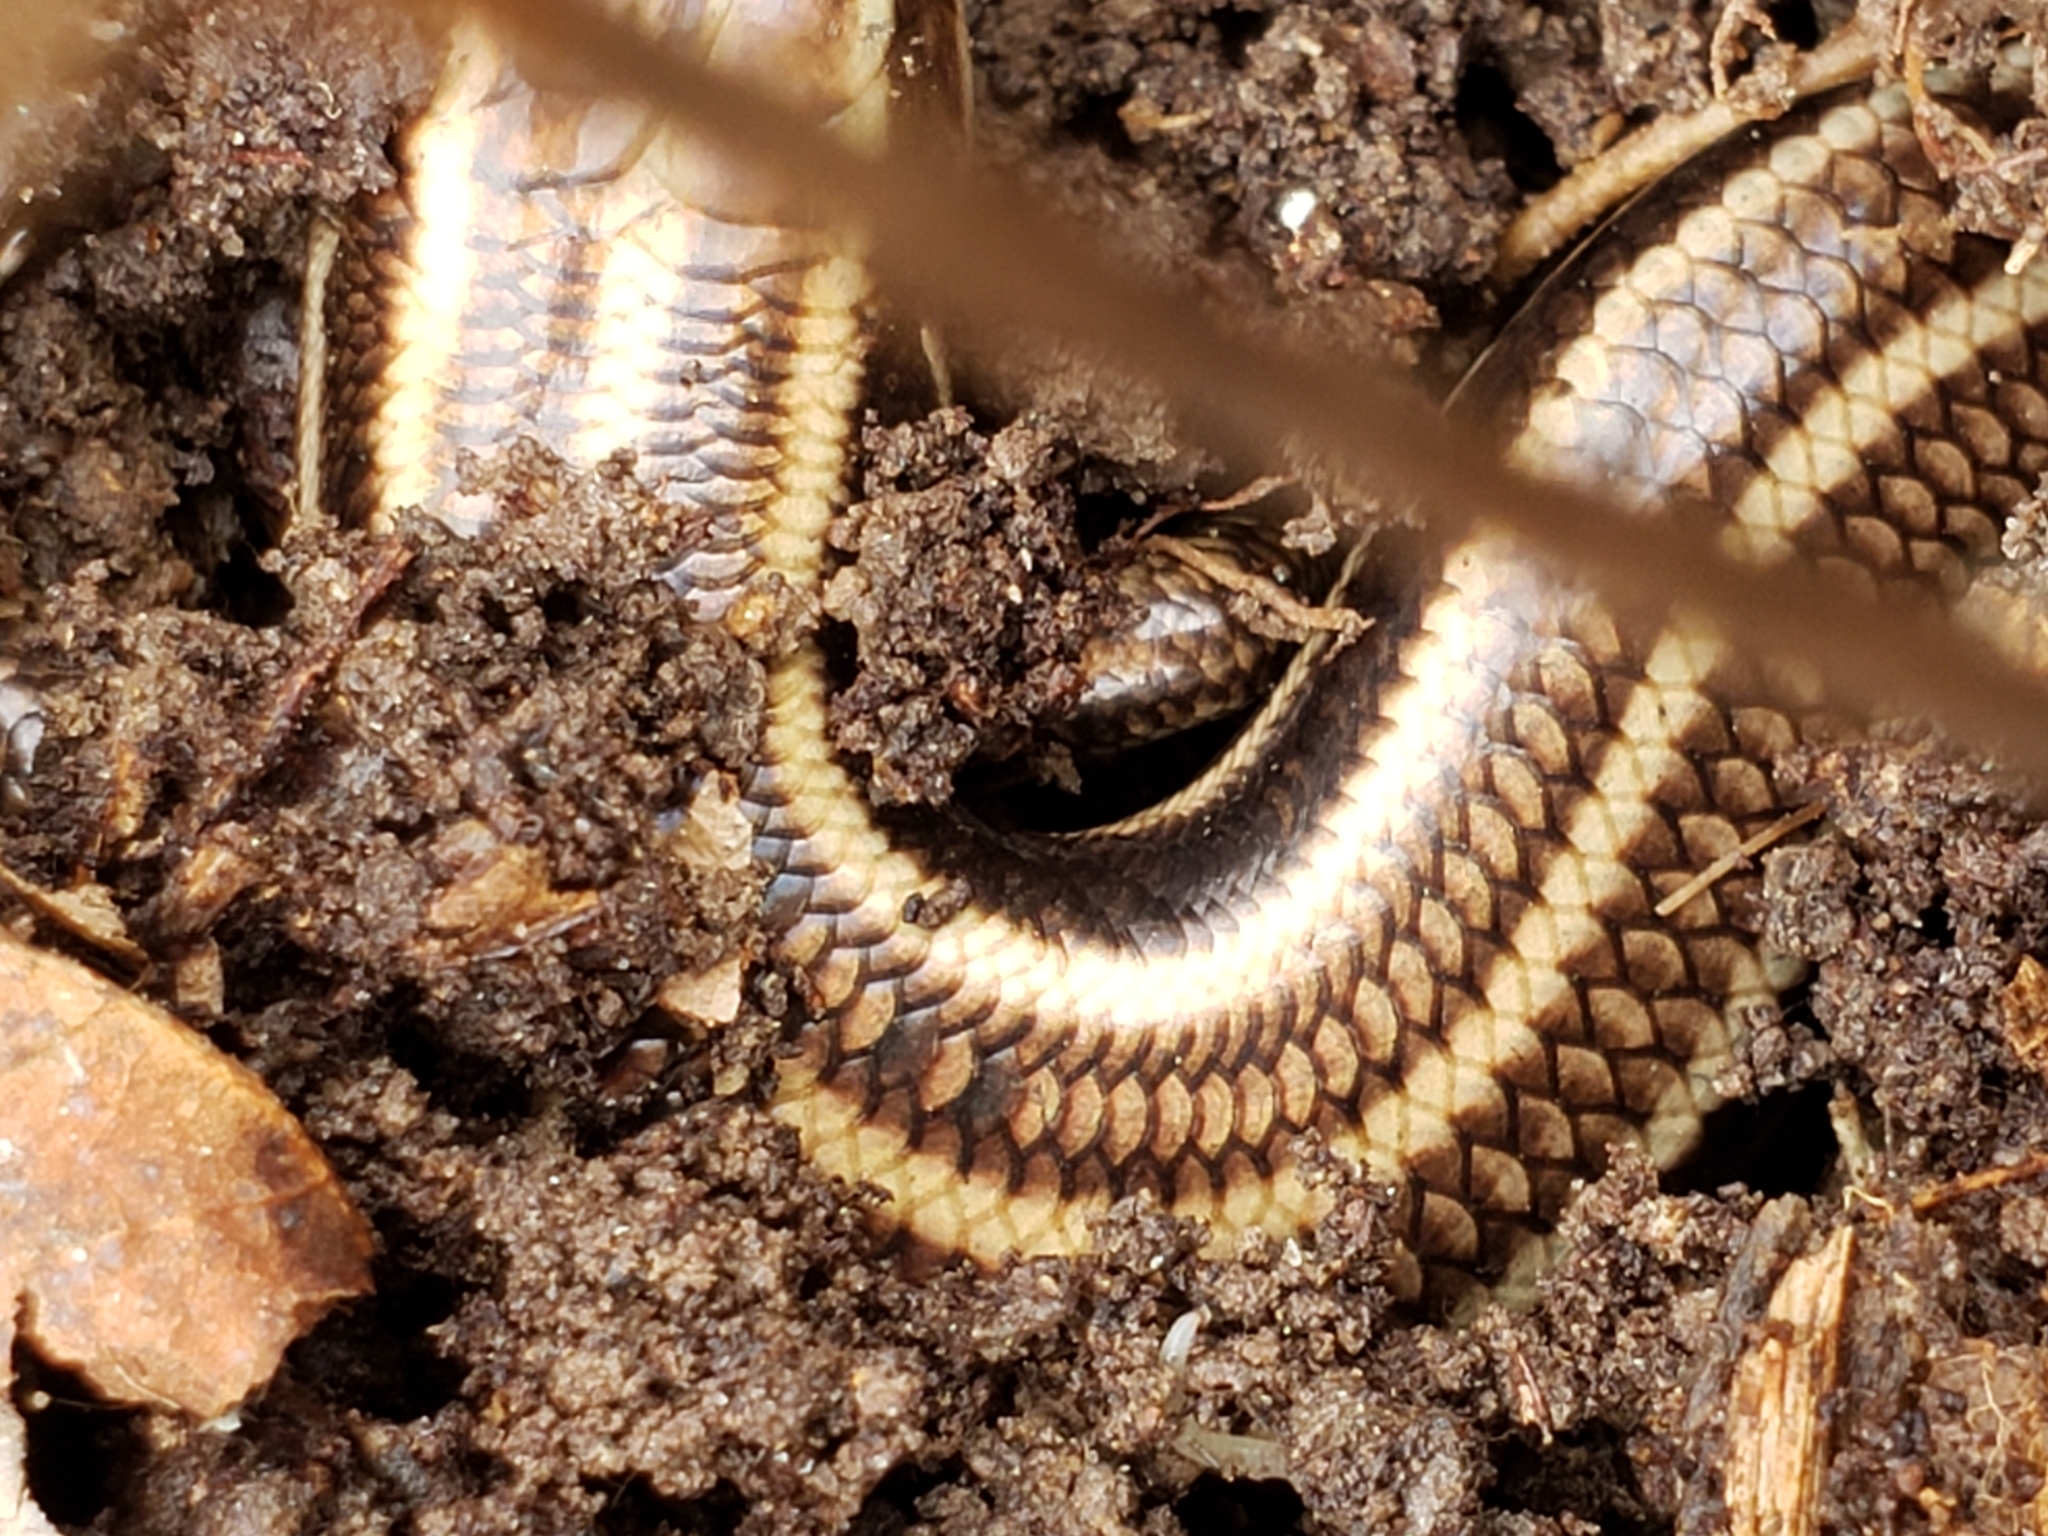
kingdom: Animalia
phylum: Chordata
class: Squamata
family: Scincidae
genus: Plestiodon
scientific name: Plestiodon fasciatus
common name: Five-lined skink
